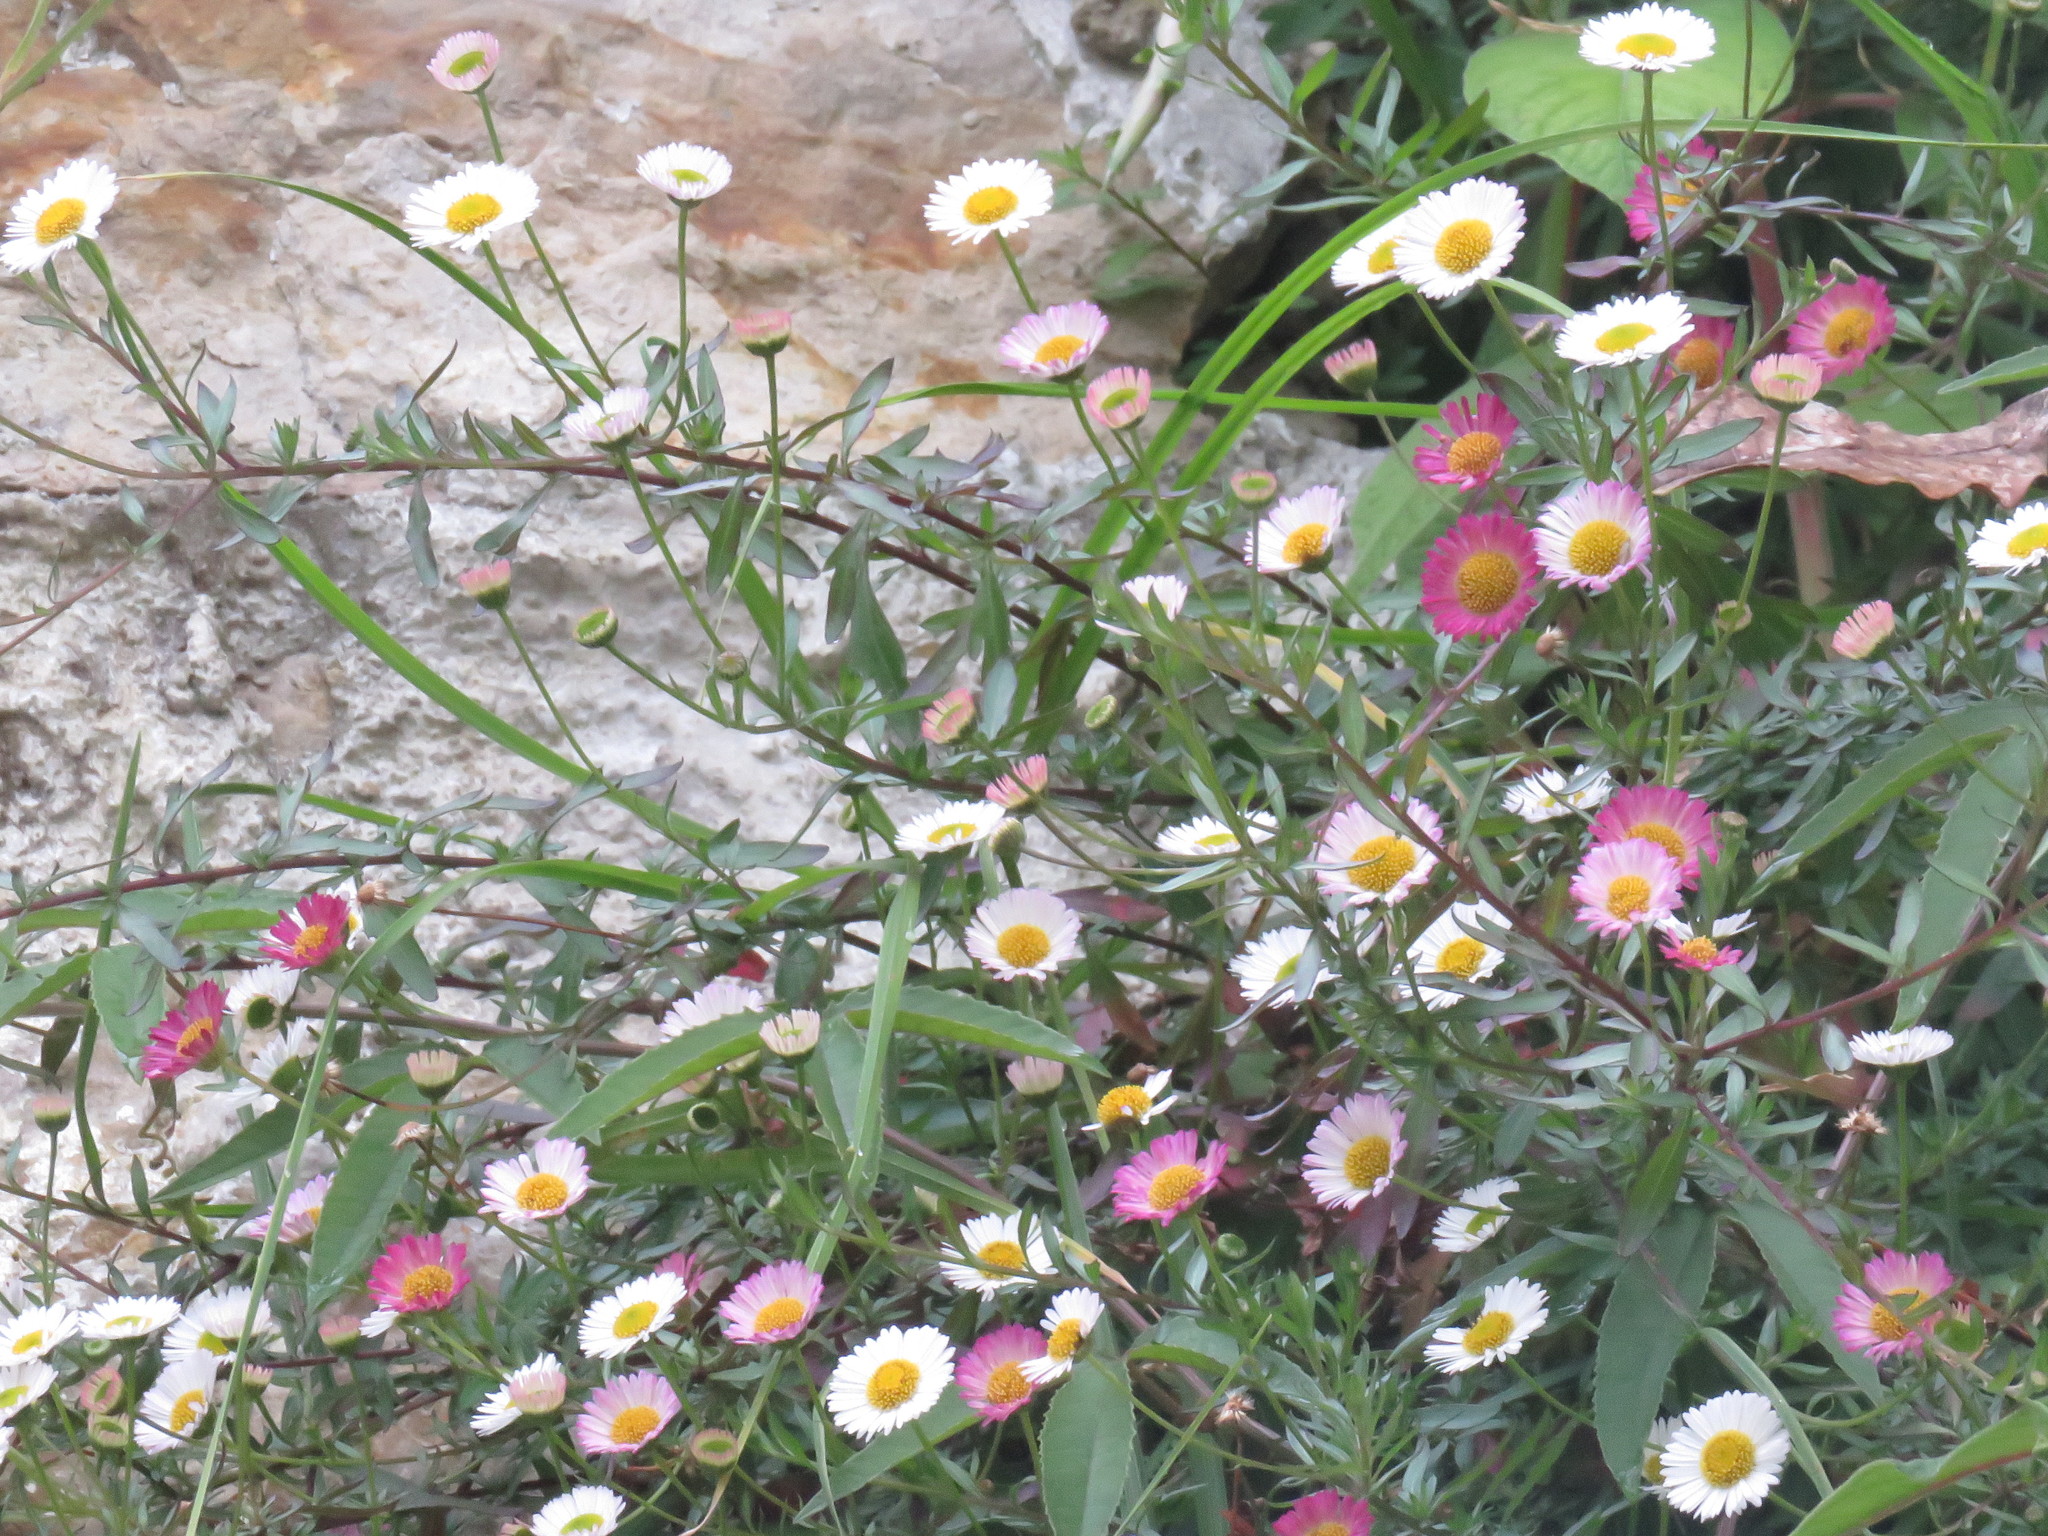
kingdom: Plantae
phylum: Tracheophyta
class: Magnoliopsida
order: Asterales
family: Asteraceae
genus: Erigeron
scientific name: Erigeron karvinskianus
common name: Mexican fleabane
